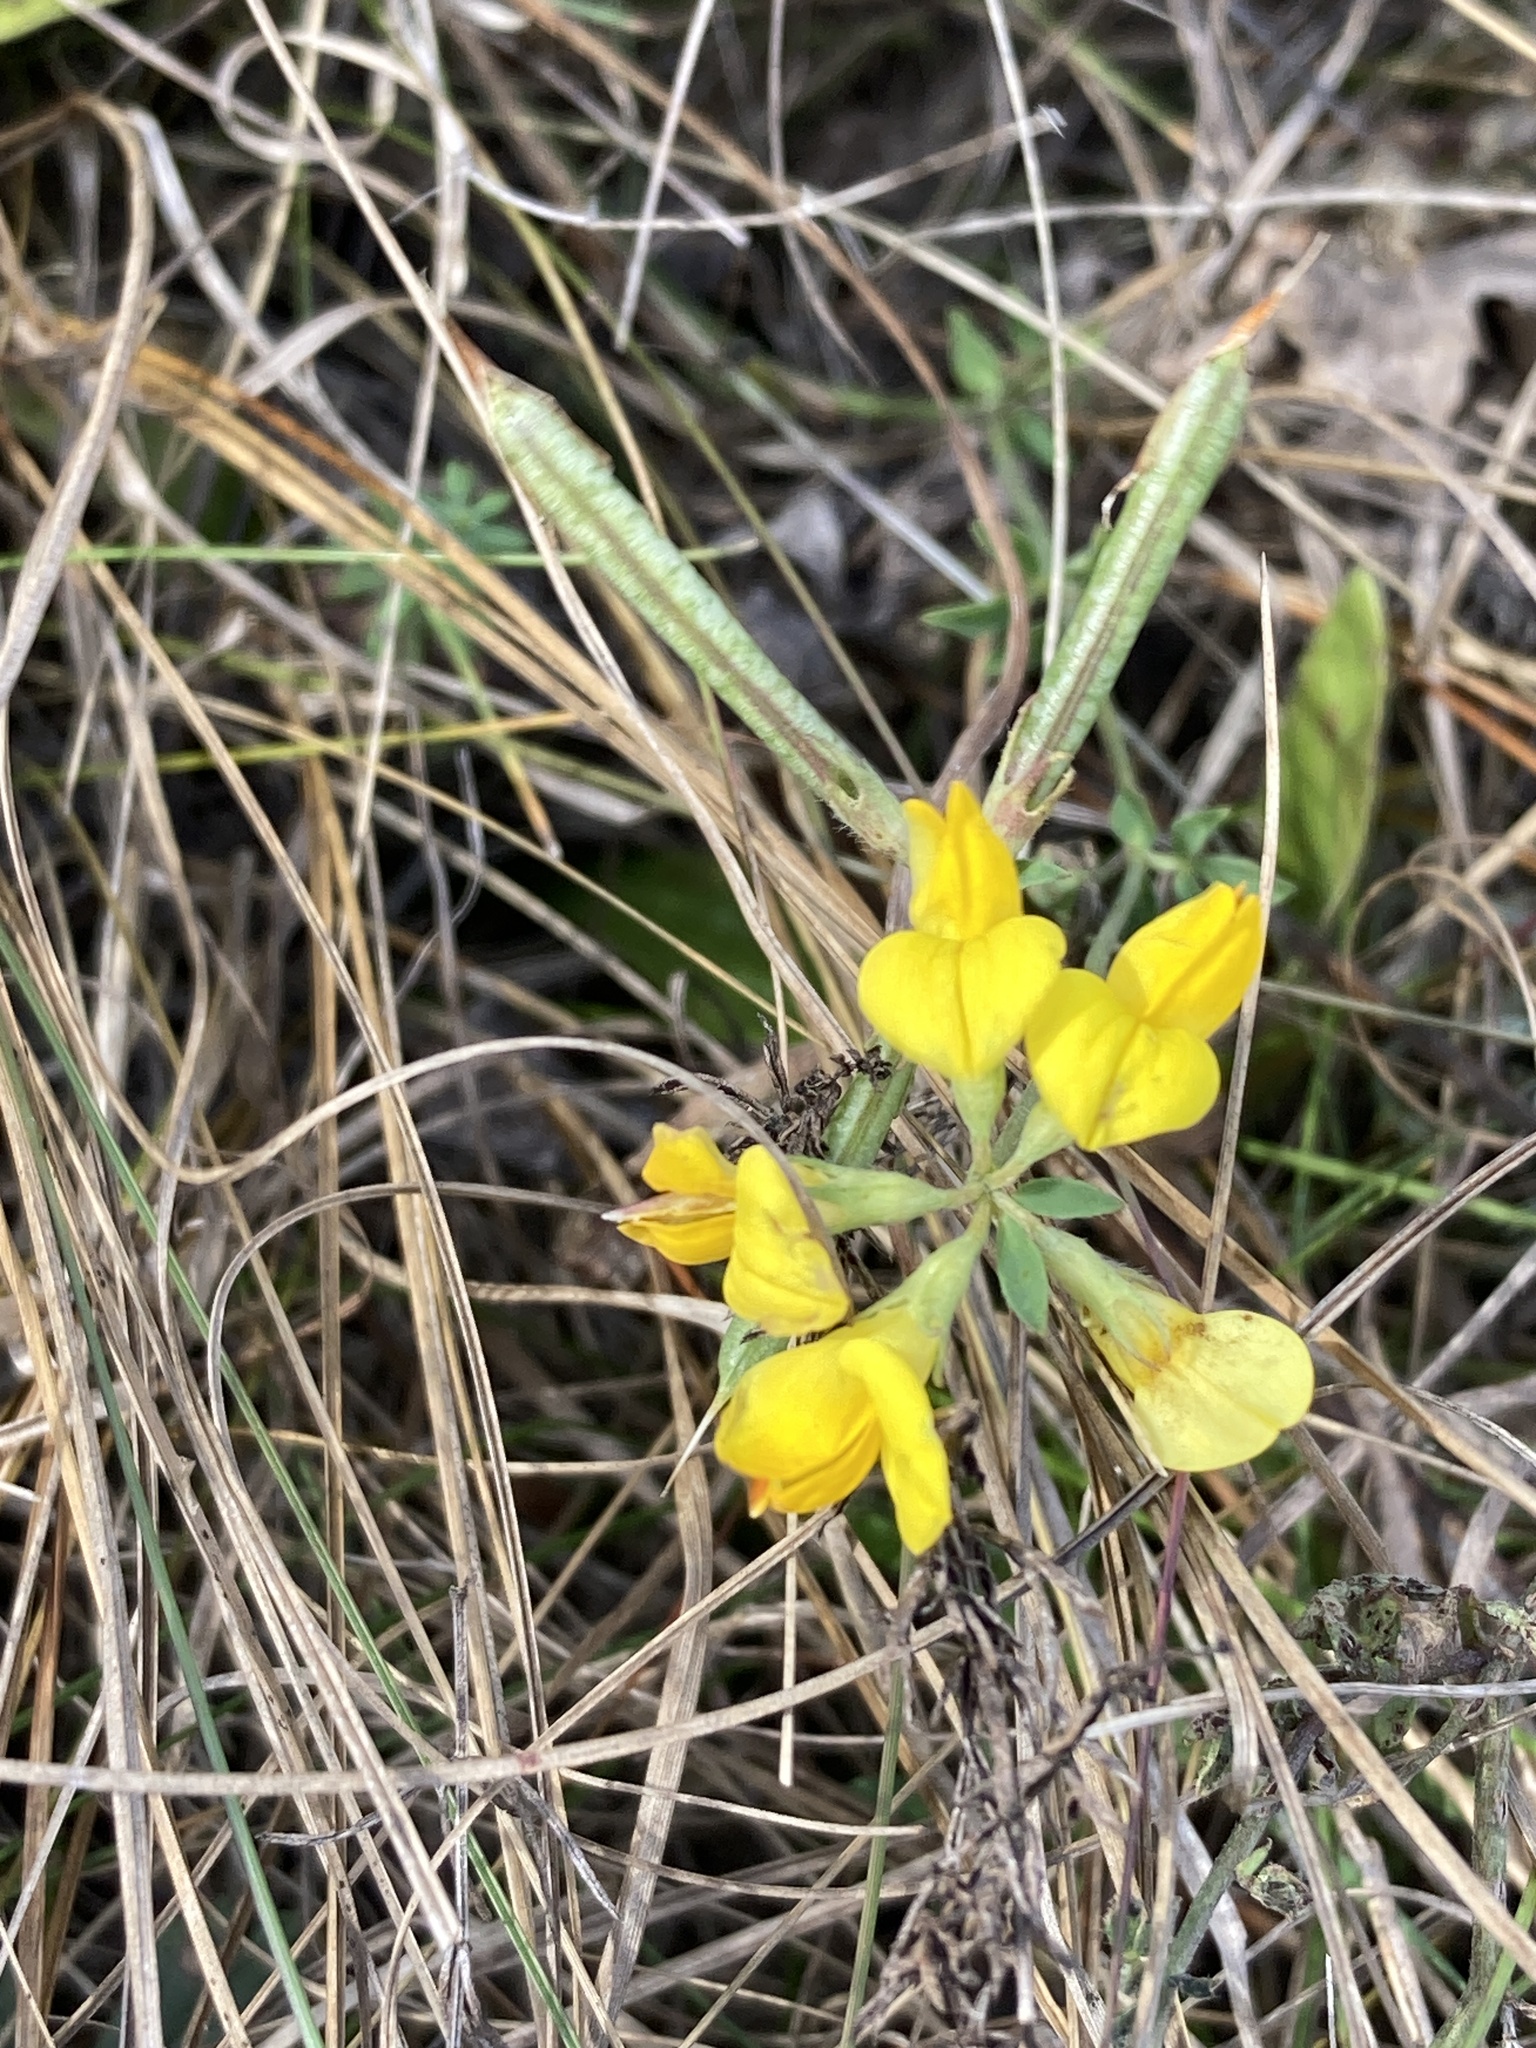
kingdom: Plantae
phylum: Tracheophyta
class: Magnoliopsida
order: Fabales
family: Fabaceae
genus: Lotus
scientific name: Lotus corniculatus
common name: Common bird's-foot-trefoil
